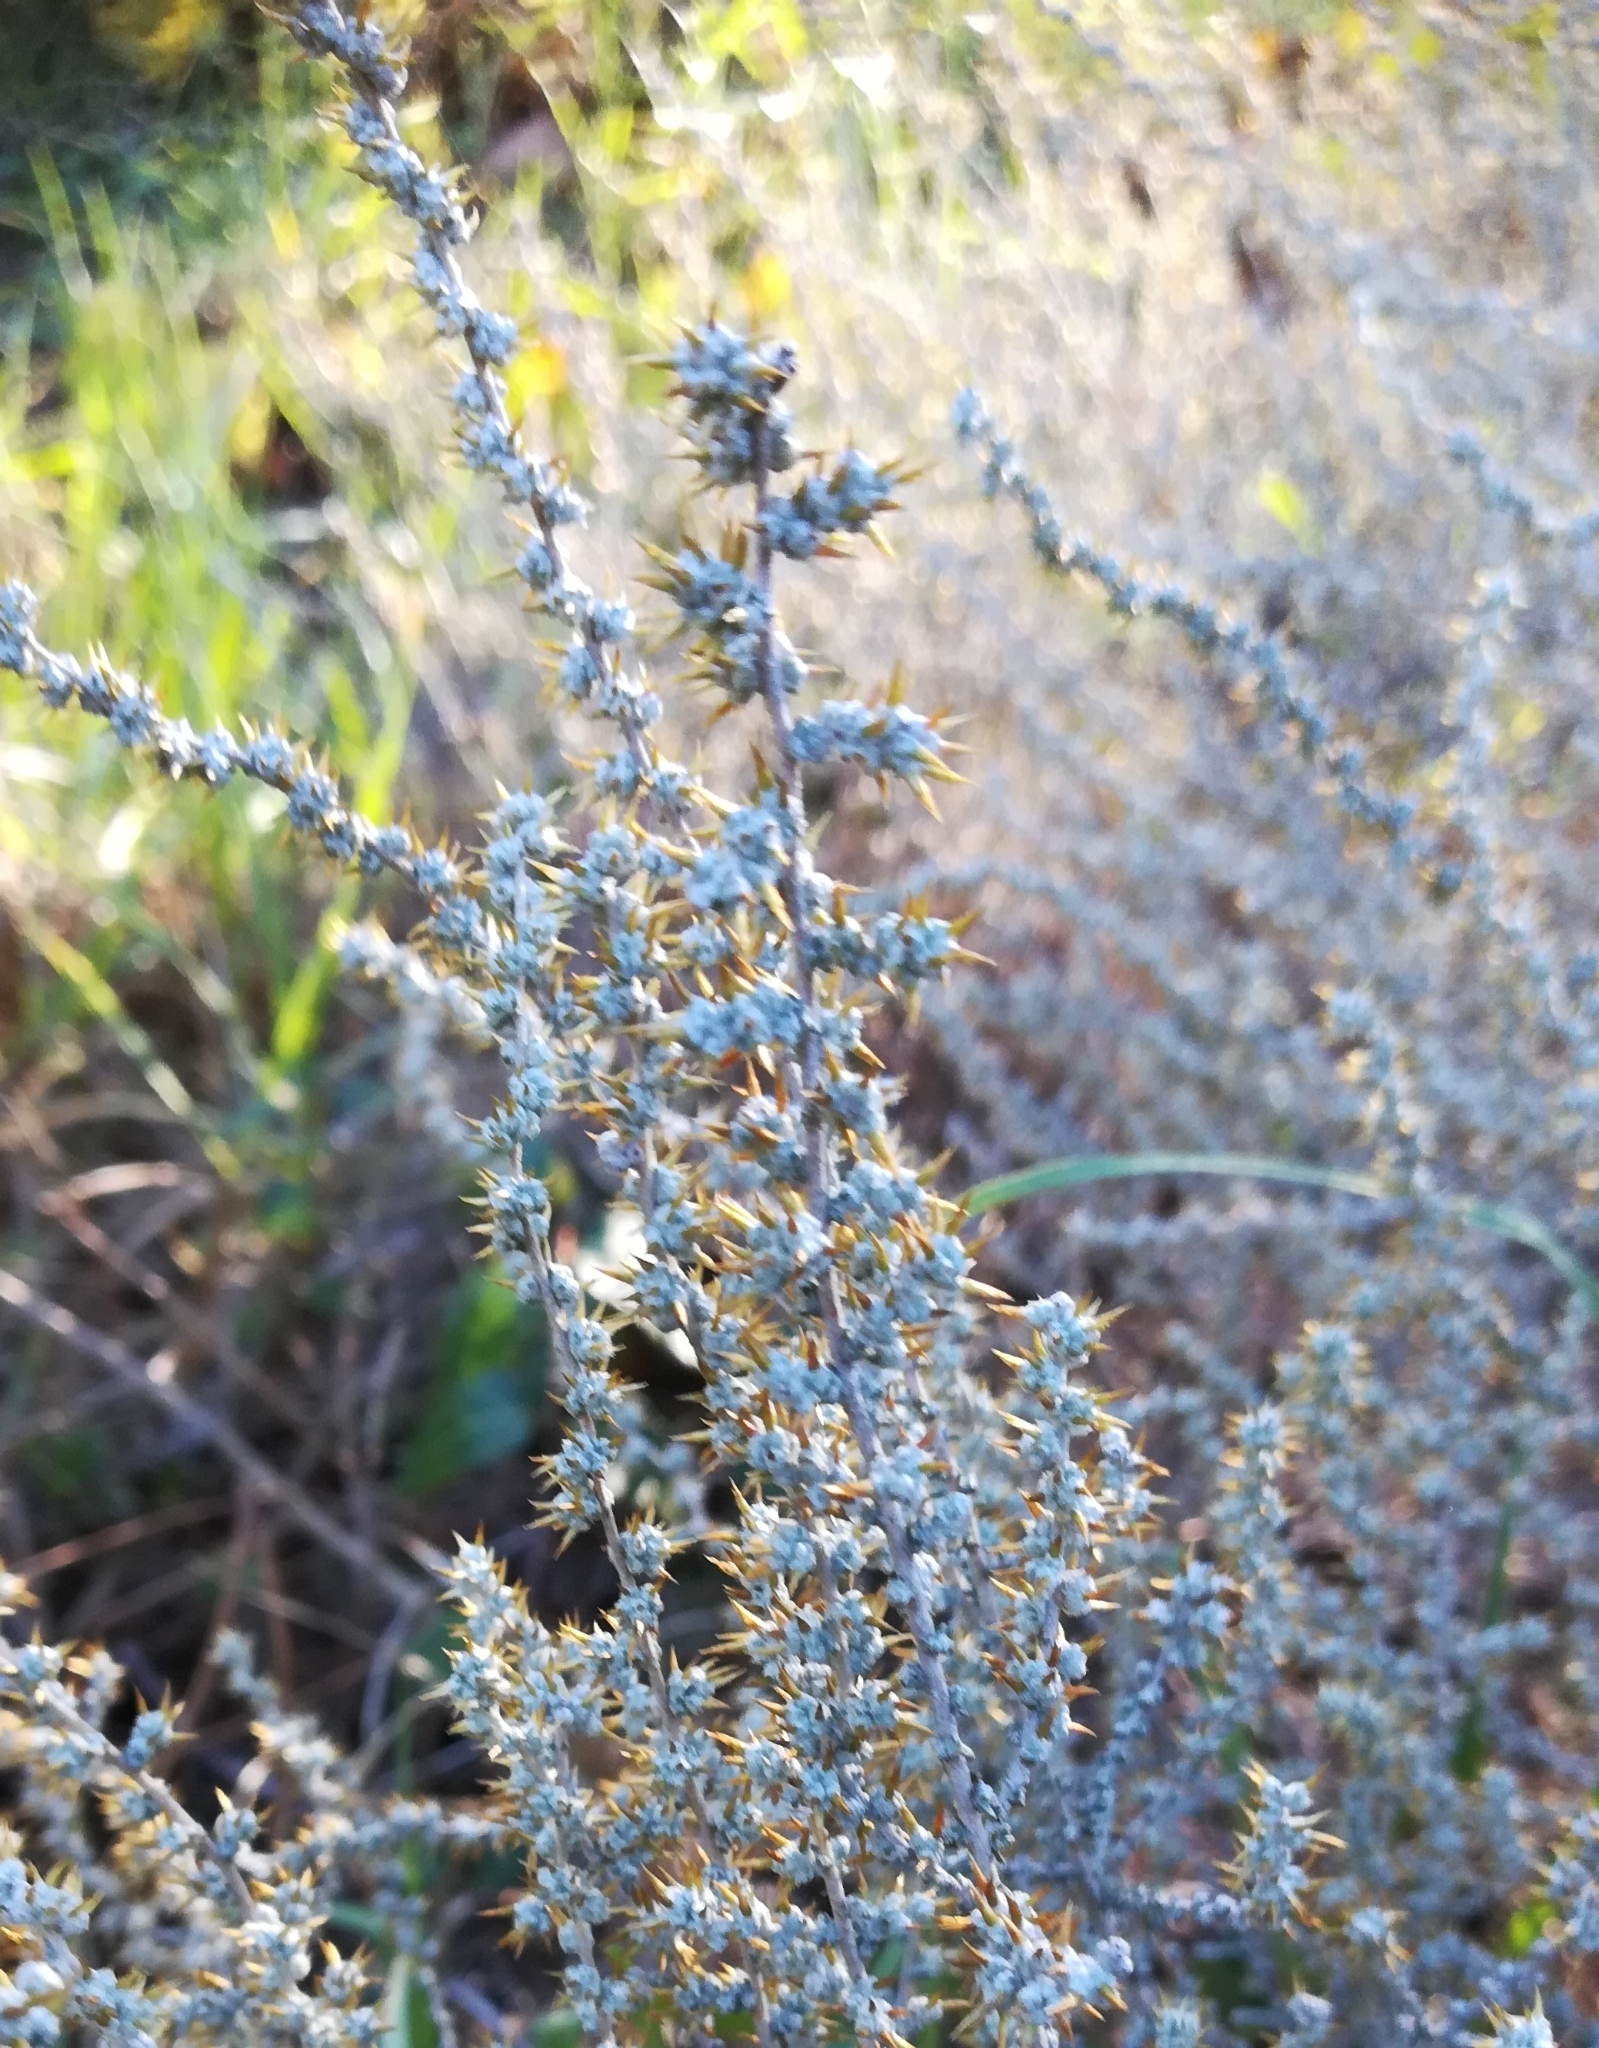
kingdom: Plantae
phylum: Tracheophyta
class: Magnoliopsida
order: Asterales
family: Asteraceae
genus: Seriphium
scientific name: Seriphium plumosum
